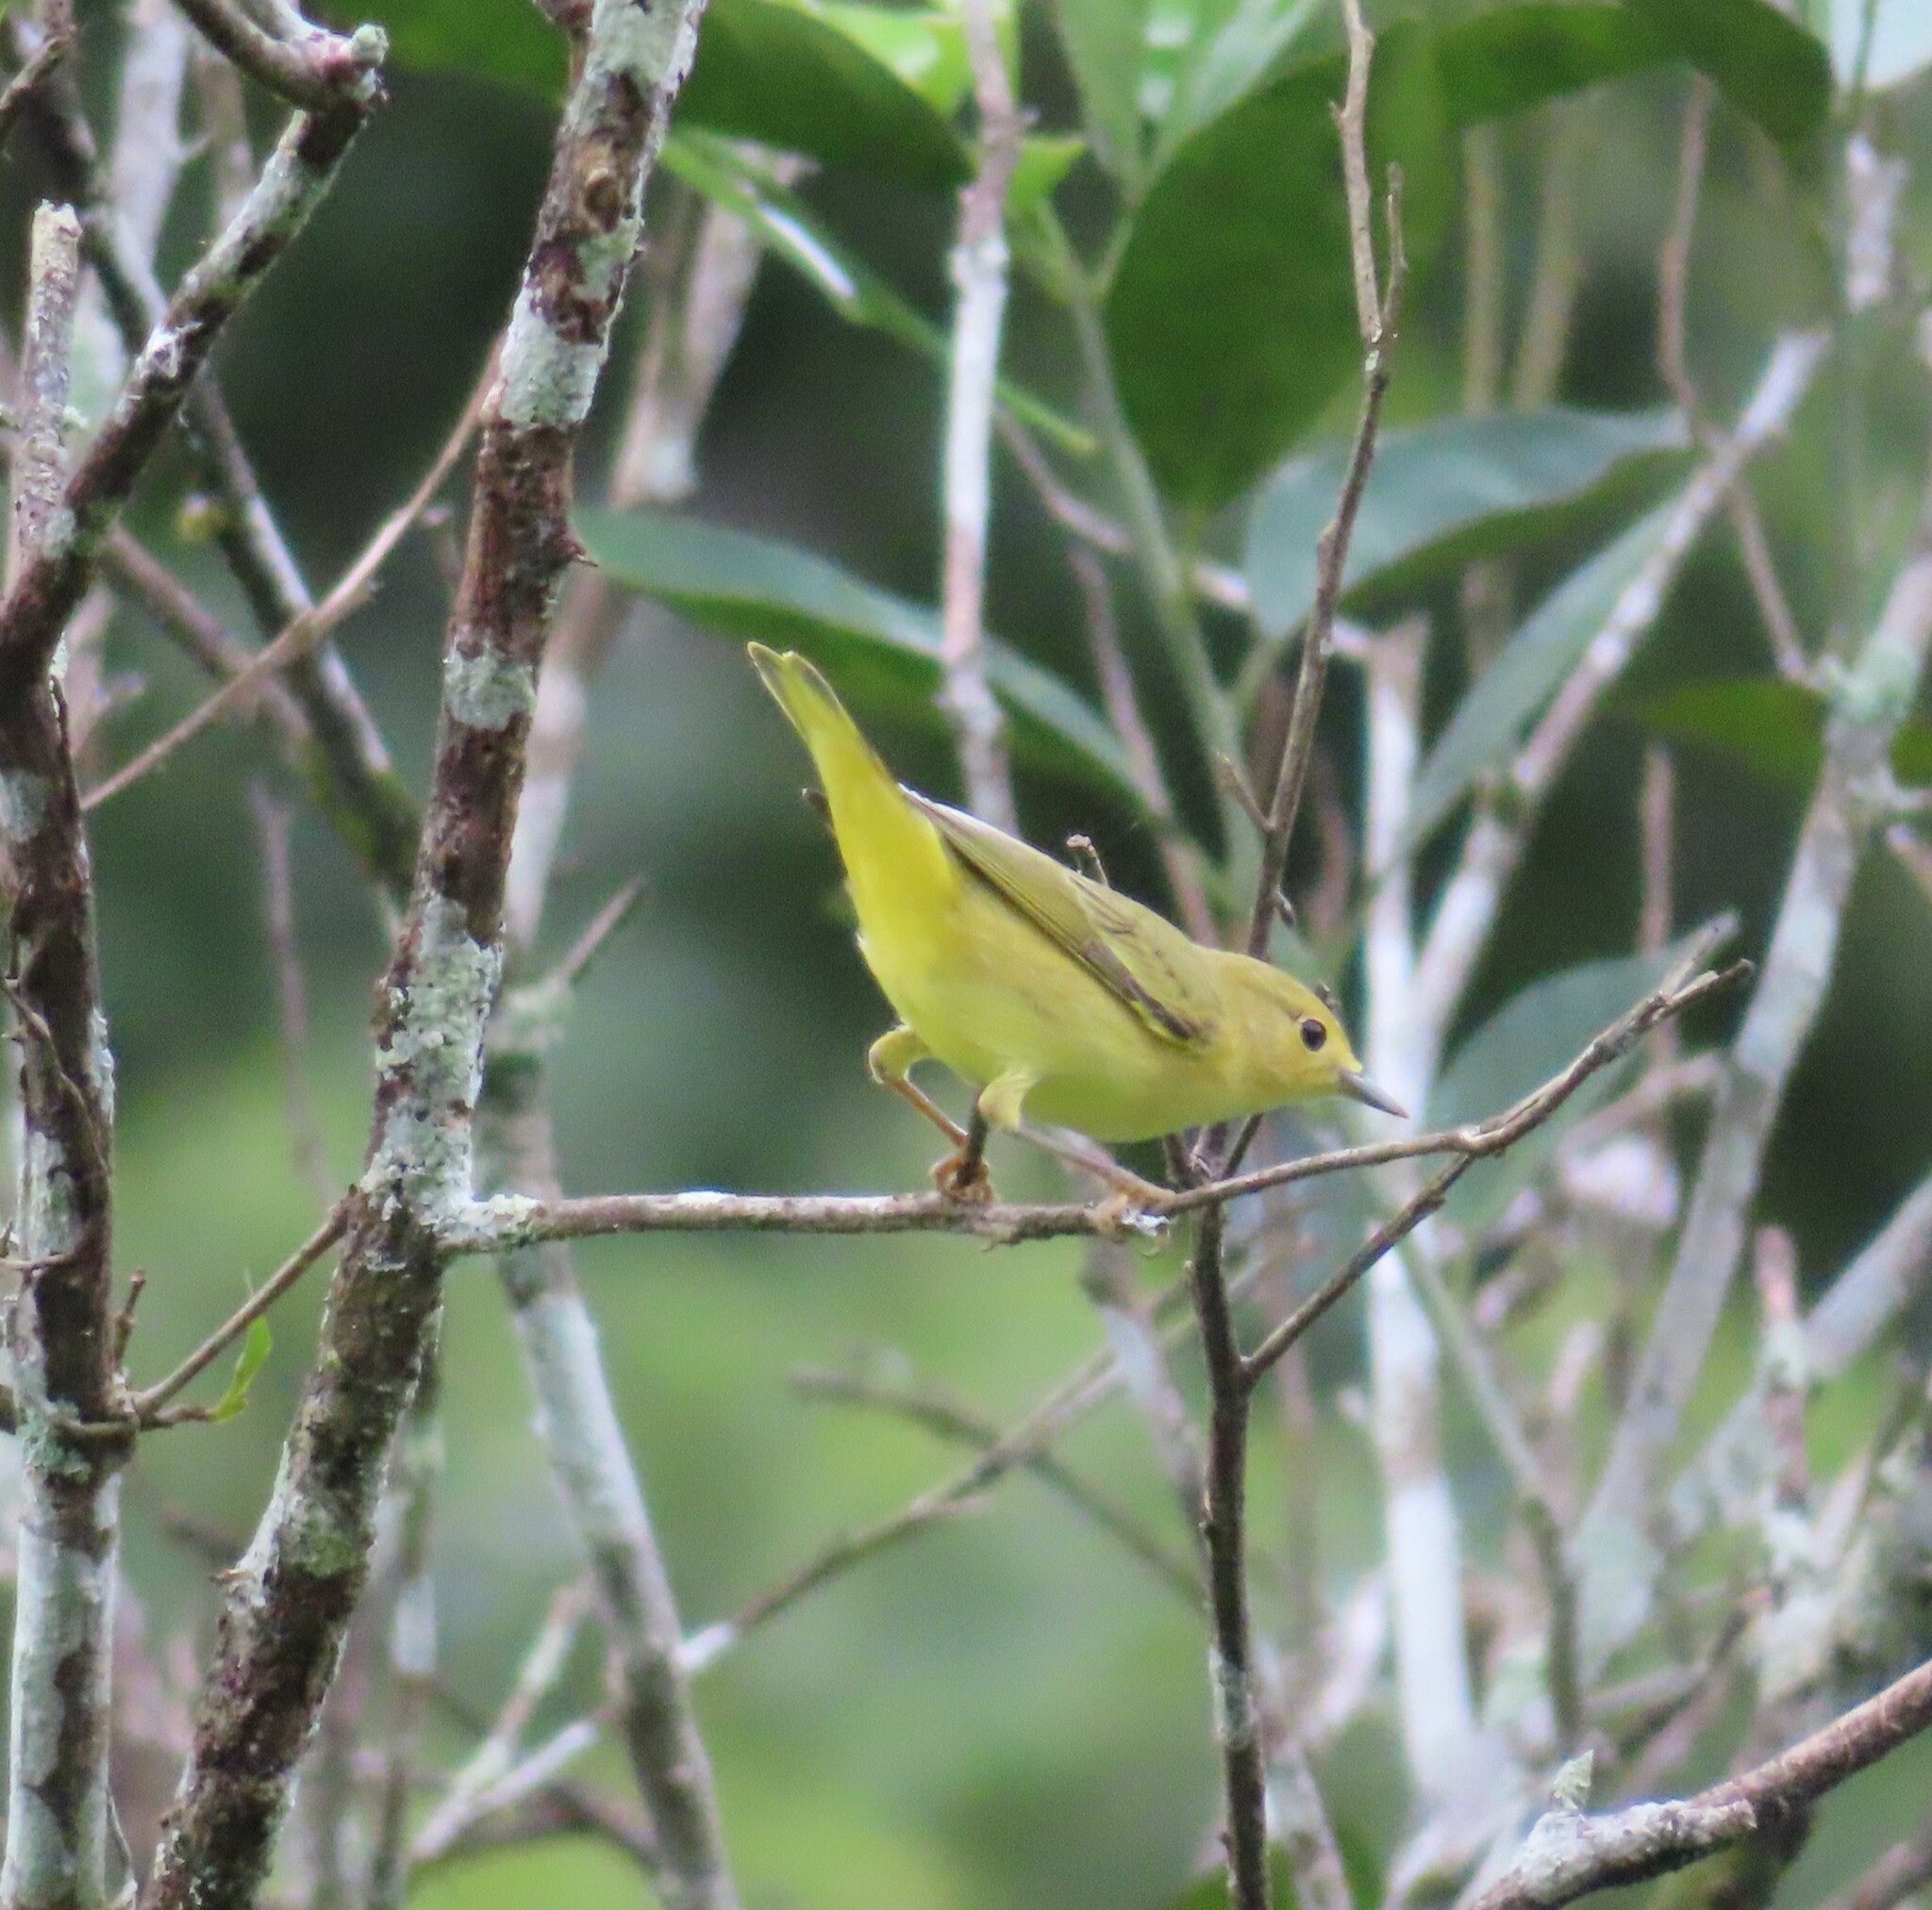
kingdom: Animalia
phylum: Chordata
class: Aves
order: Passeriformes
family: Parulidae
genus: Setophaga
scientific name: Setophaga petechia
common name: Yellow warbler
